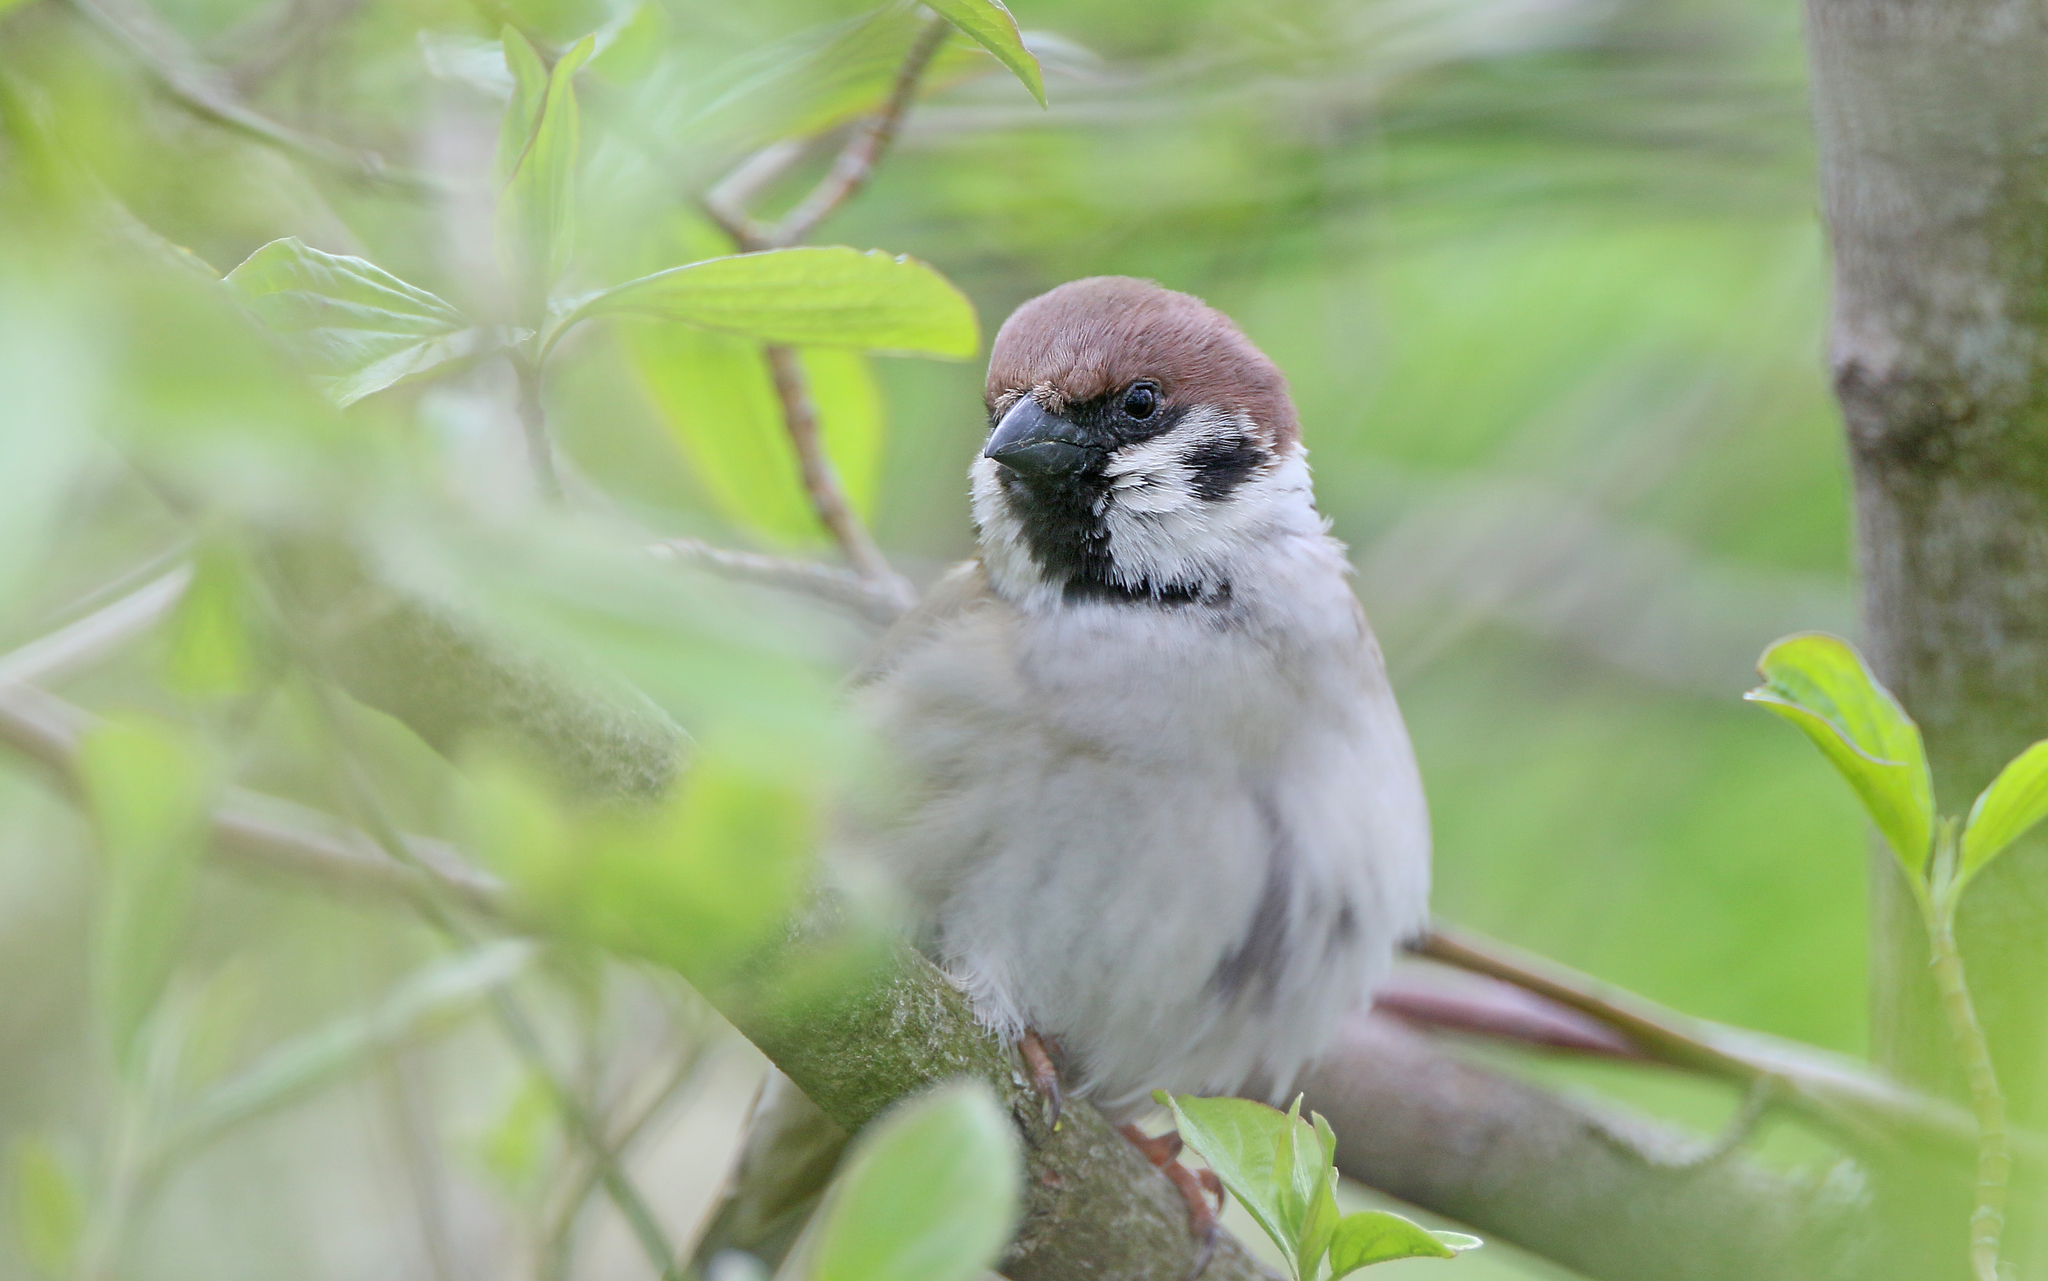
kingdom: Animalia
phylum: Chordata
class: Aves
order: Passeriformes
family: Passeridae
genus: Passer
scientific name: Passer montanus
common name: Eurasian tree sparrow
